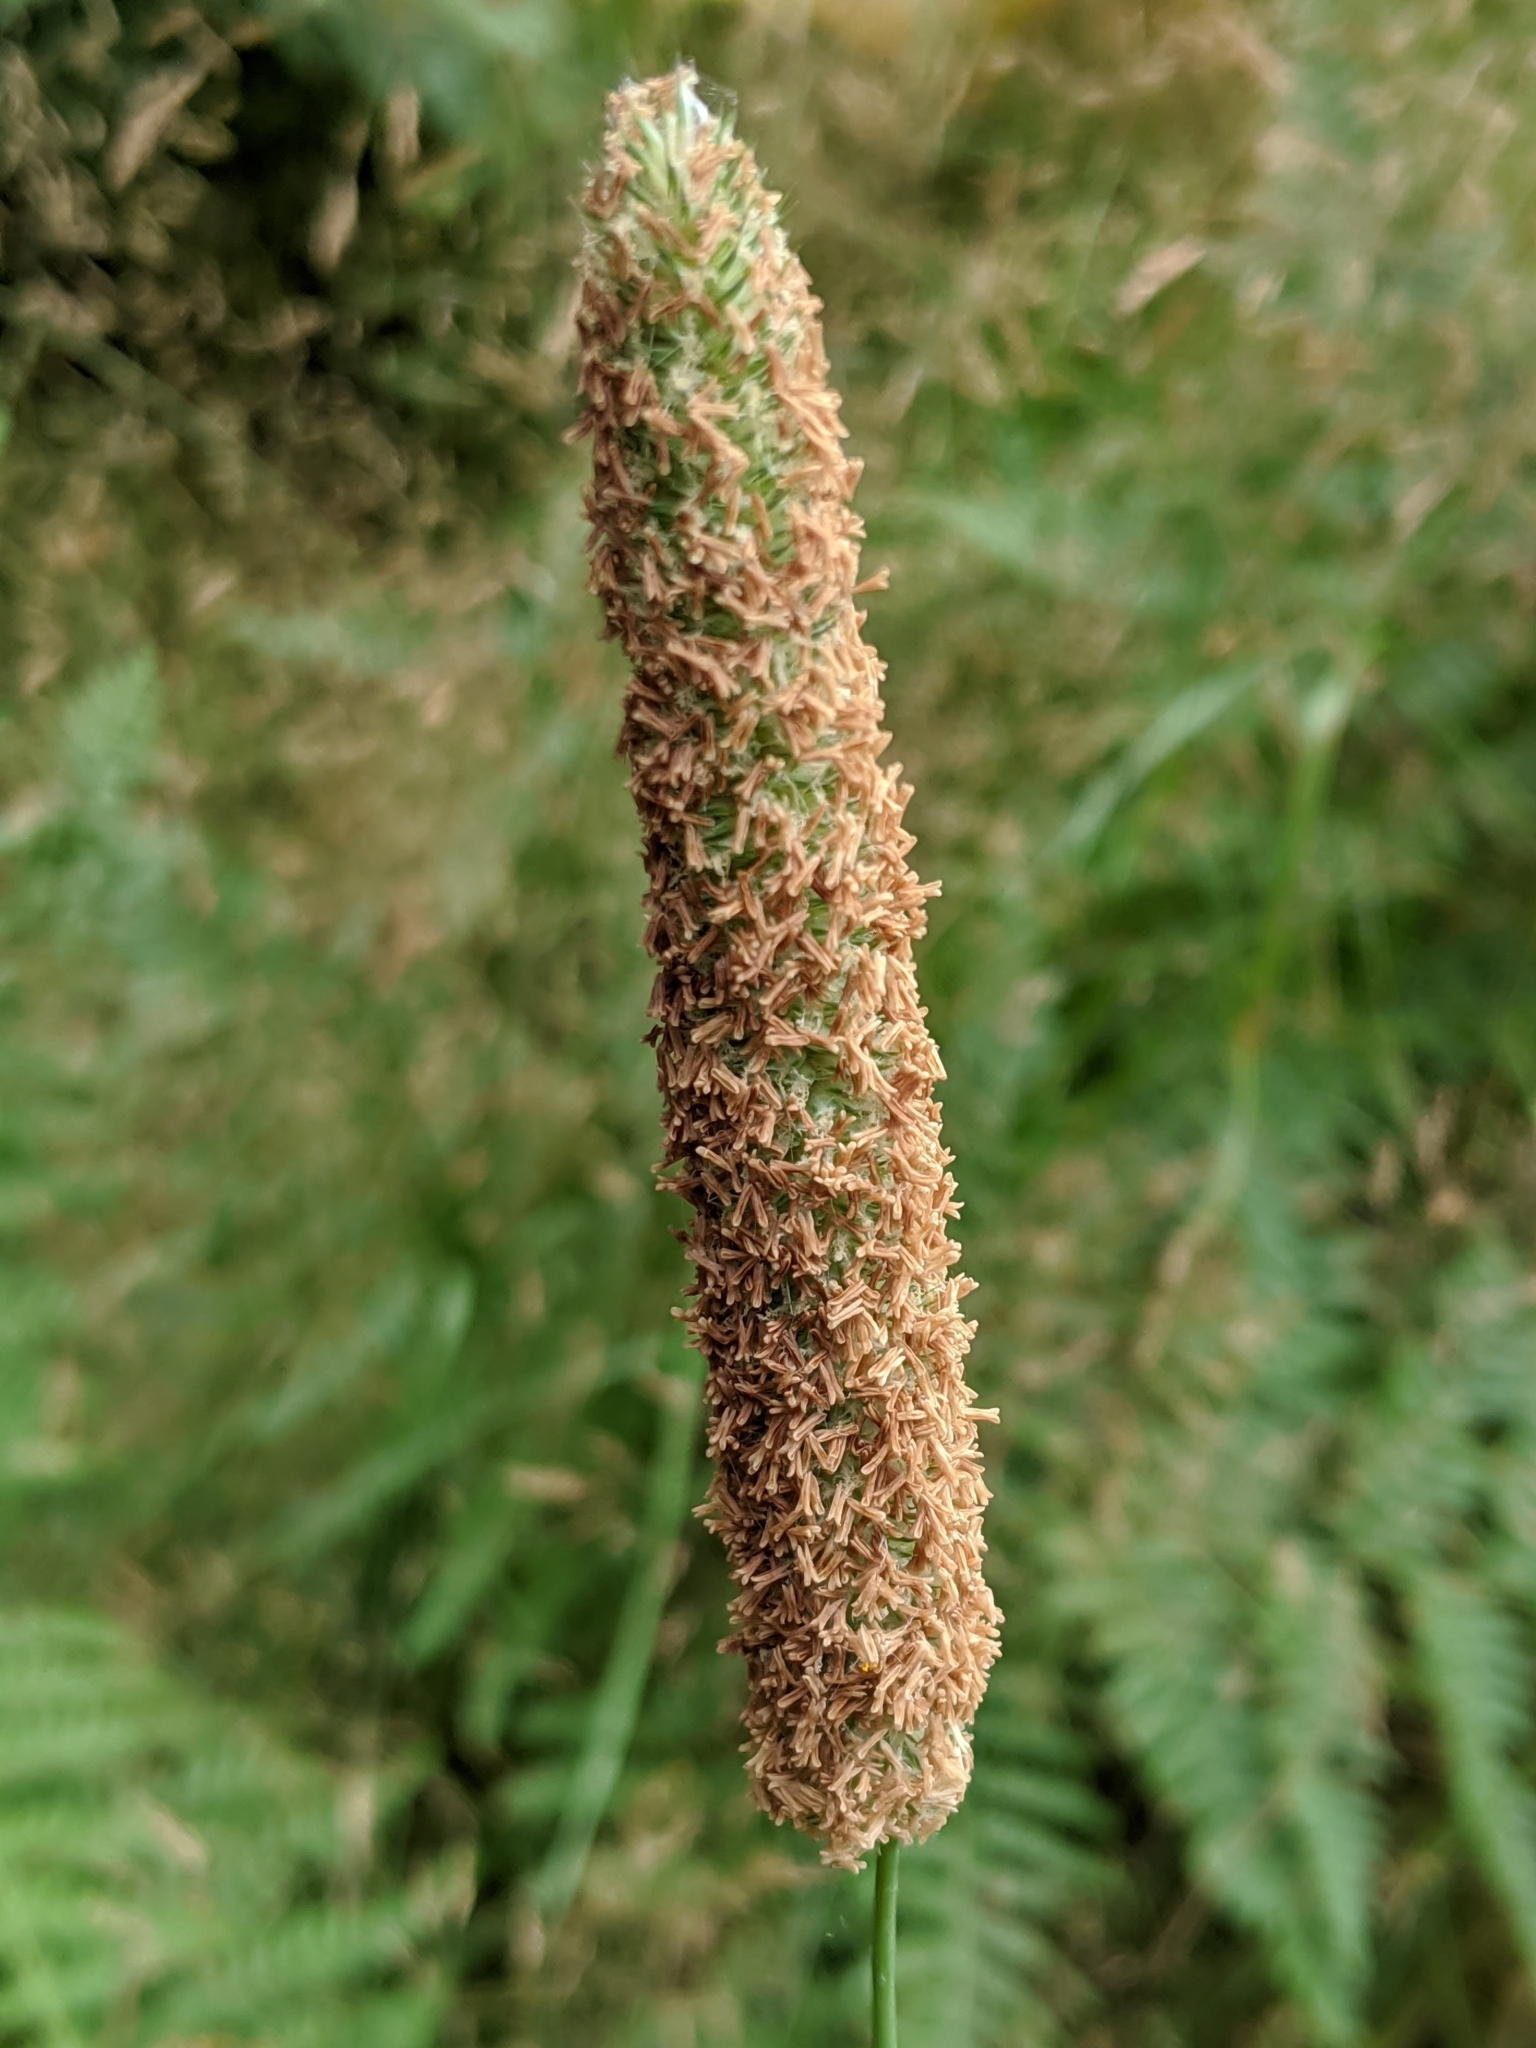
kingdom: Plantae
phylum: Tracheophyta
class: Liliopsida
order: Poales
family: Poaceae
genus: Phleum
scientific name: Phleum pratense
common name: Timothy grass
